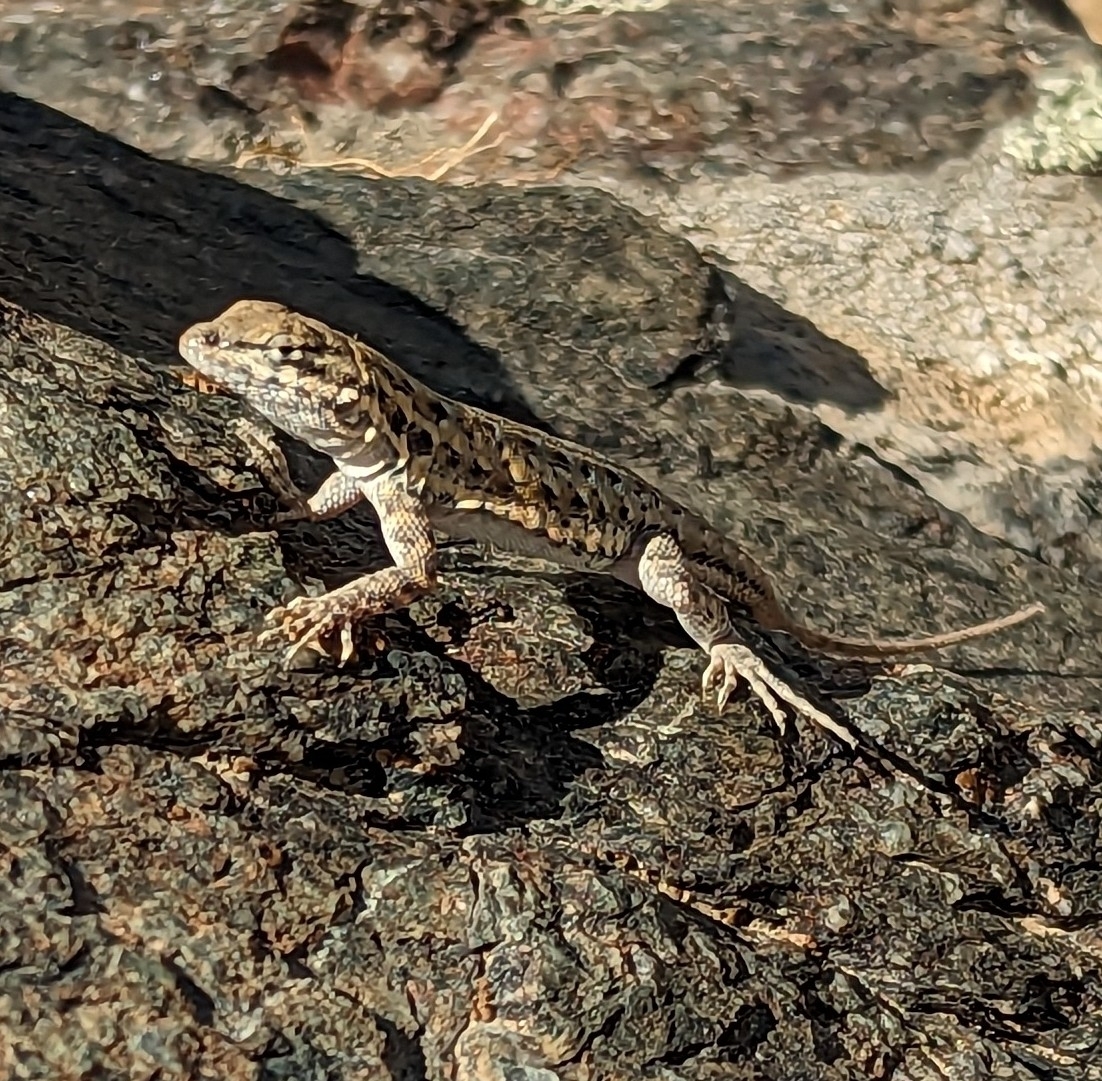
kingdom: Animalia
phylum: Chordata
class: Squamata
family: Phrynosomatidae
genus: Uta
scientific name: Uta stansburiana
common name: Side-blotched lizard
